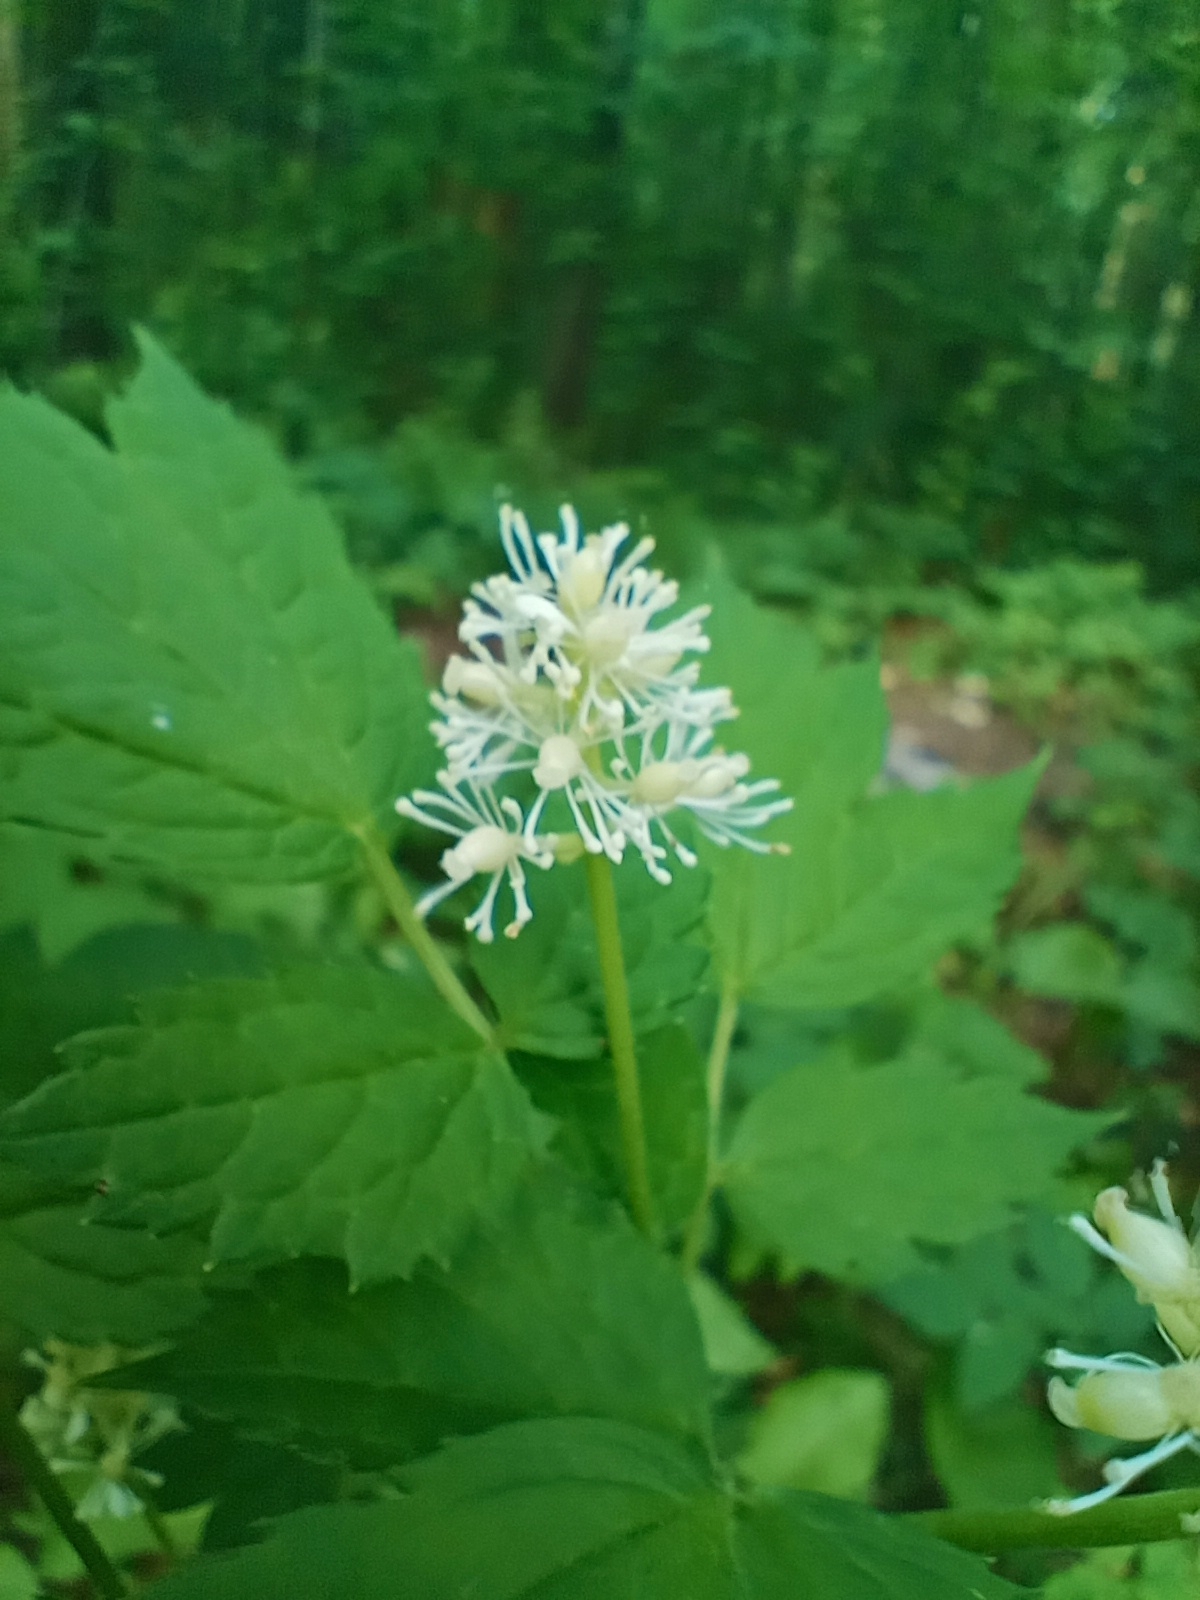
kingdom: Plantae
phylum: Tracheophyta
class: Magnoliopsida
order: Ranunculales
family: Ranunculaceae
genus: Actaea
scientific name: Actaea spicata
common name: Baneberry
